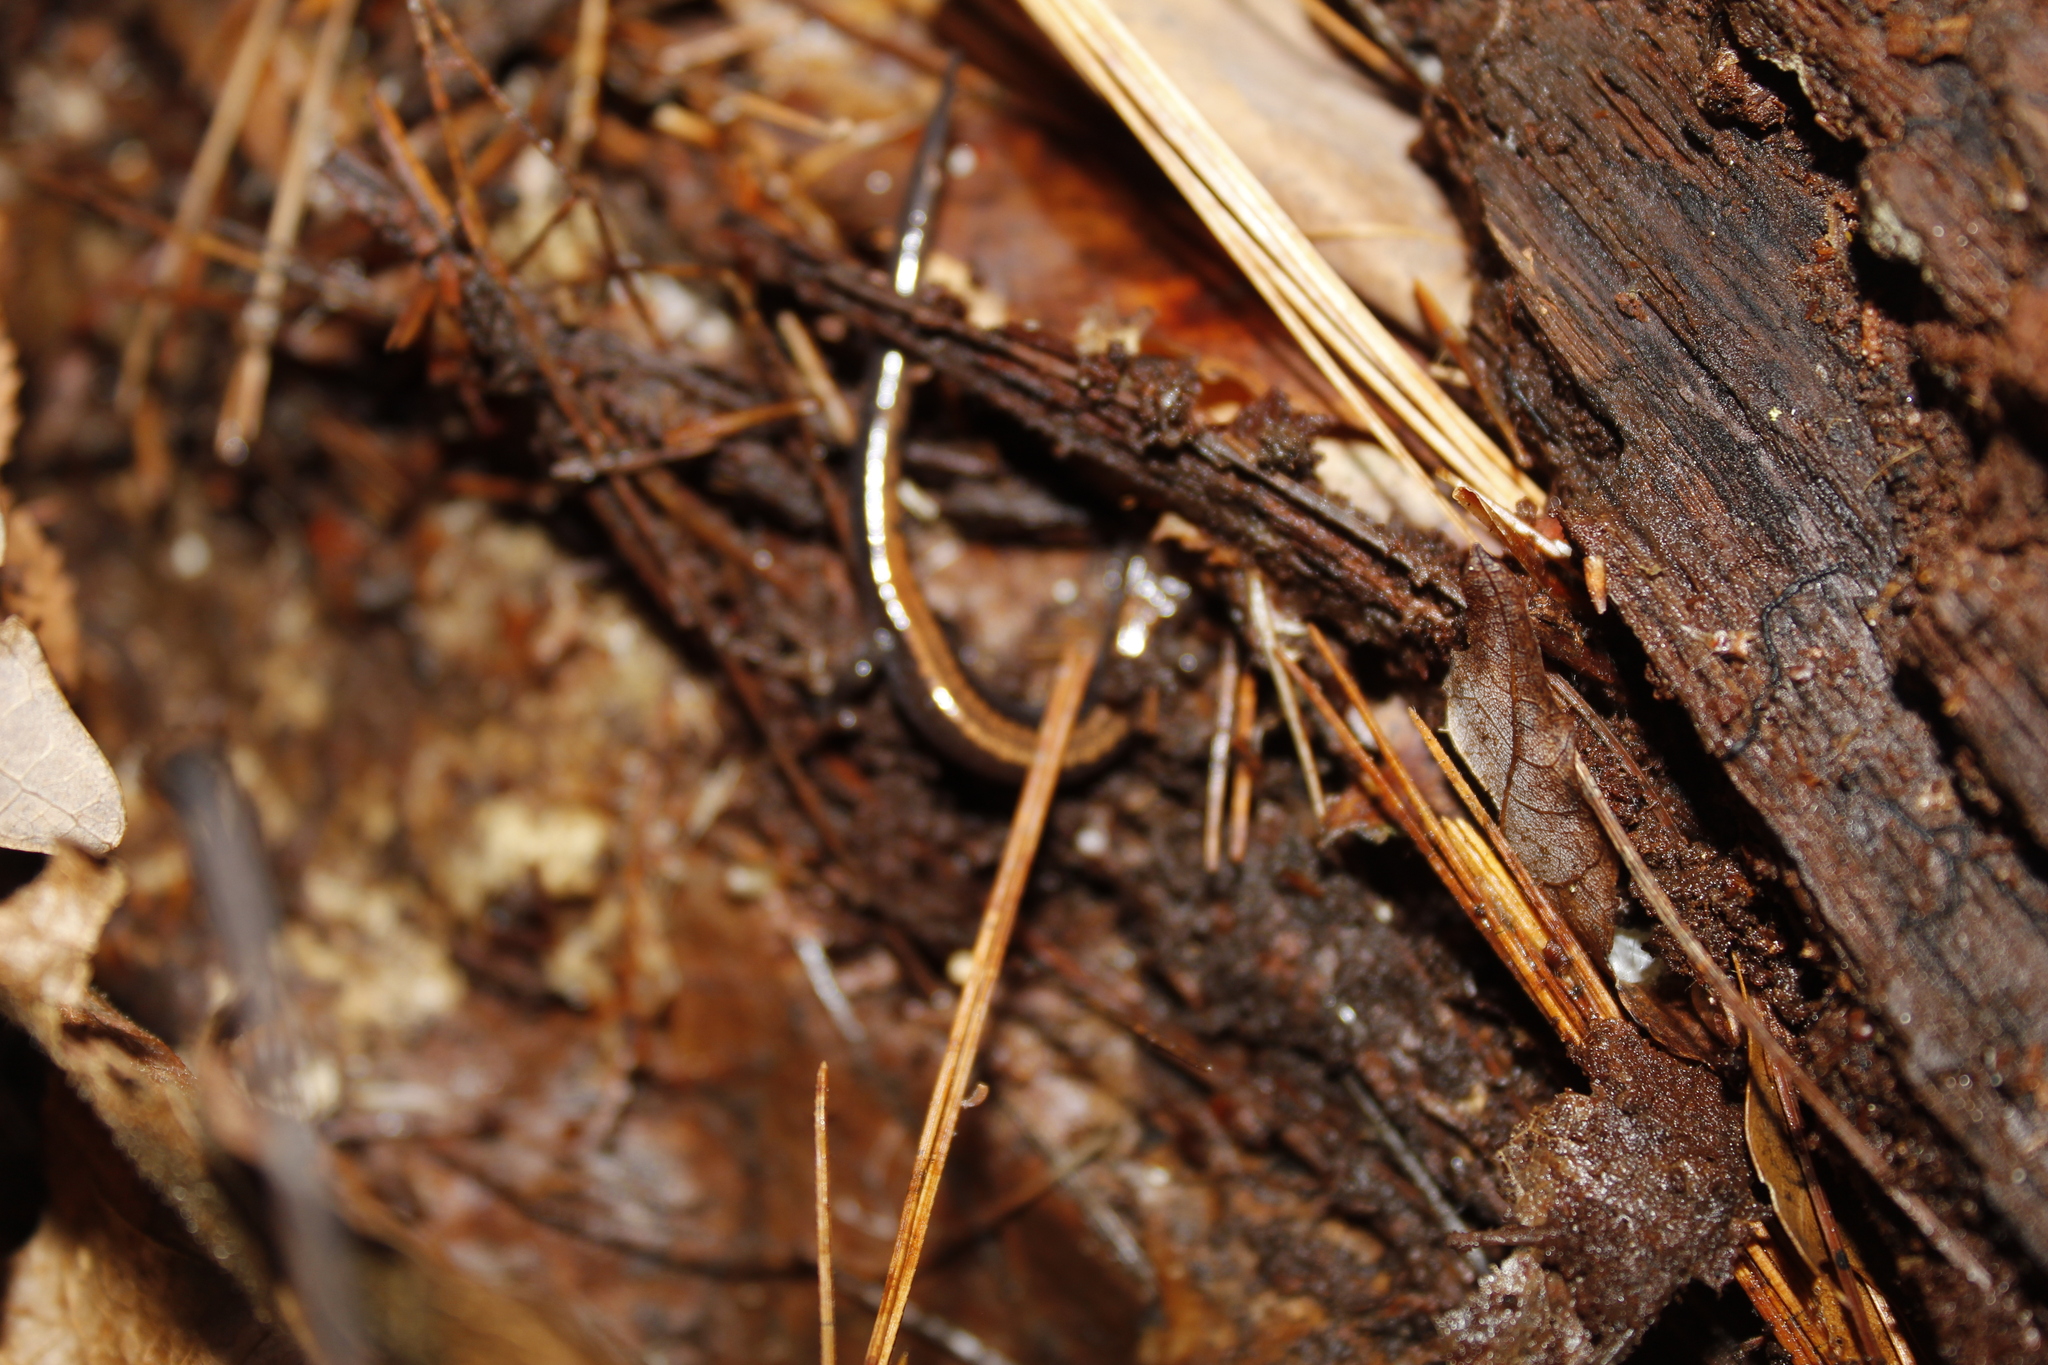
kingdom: Animalia
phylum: Chordata
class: Amphibia
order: Caudata
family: Plethodontidae
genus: Plethodon
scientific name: Plethodon cinereus
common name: Redback salamander
